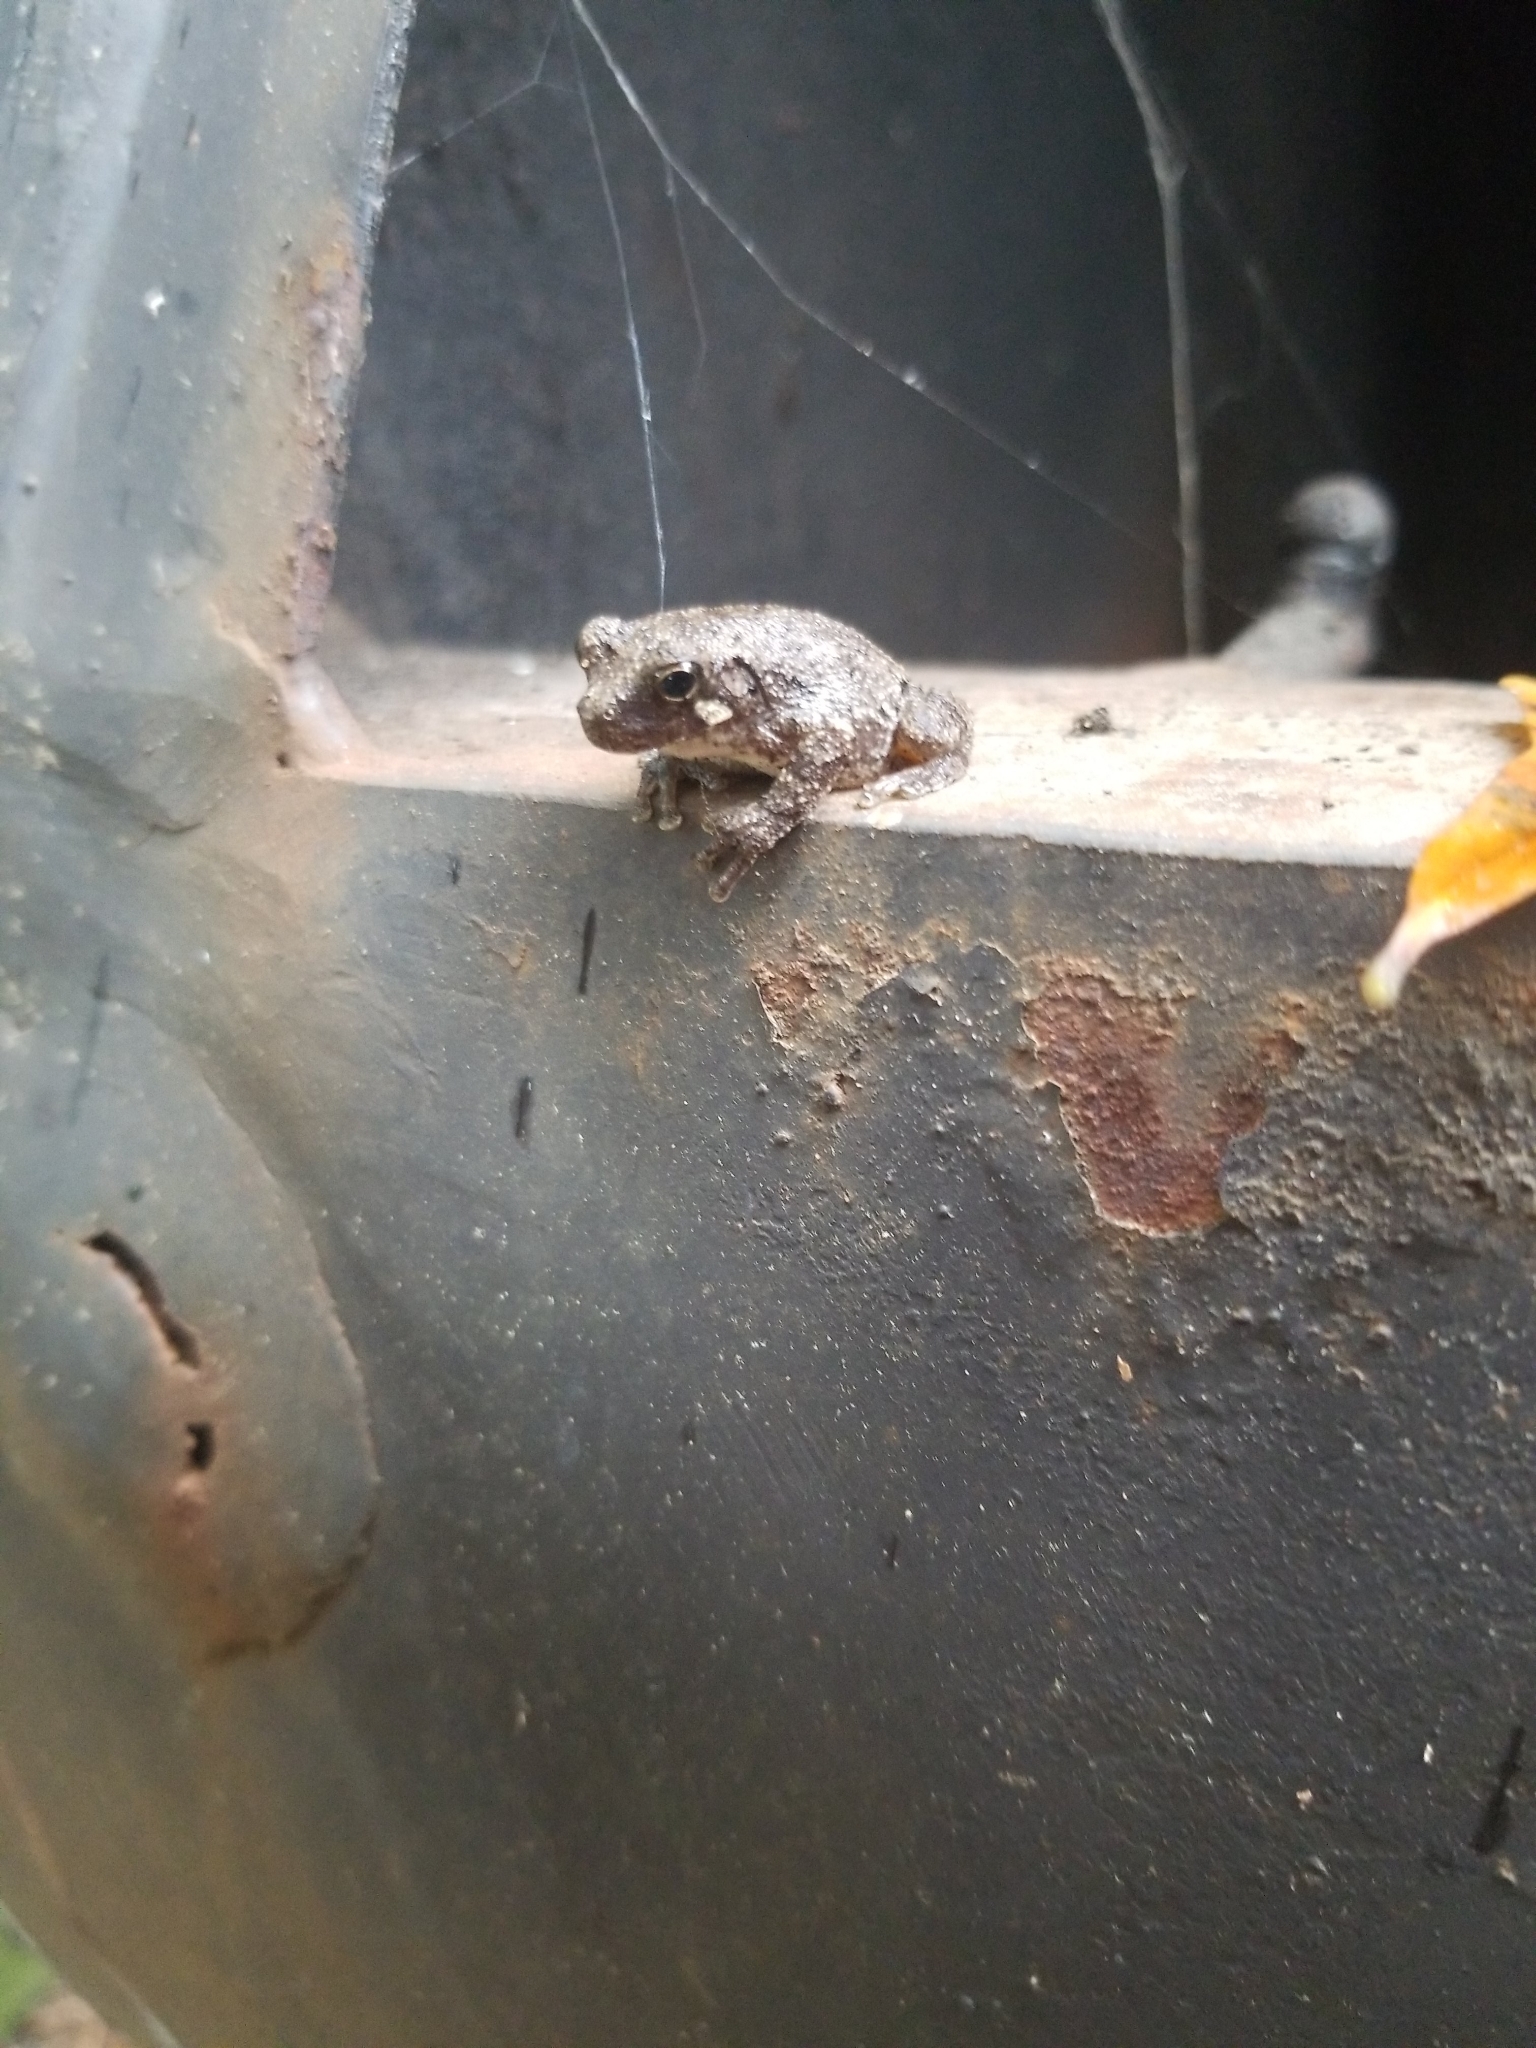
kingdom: Animalia
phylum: Chordata
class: Amphibia
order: Anura
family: Hylidae
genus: Dryophytes
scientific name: Dryophytes chrysoscelis
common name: Cope's gray treefrog
